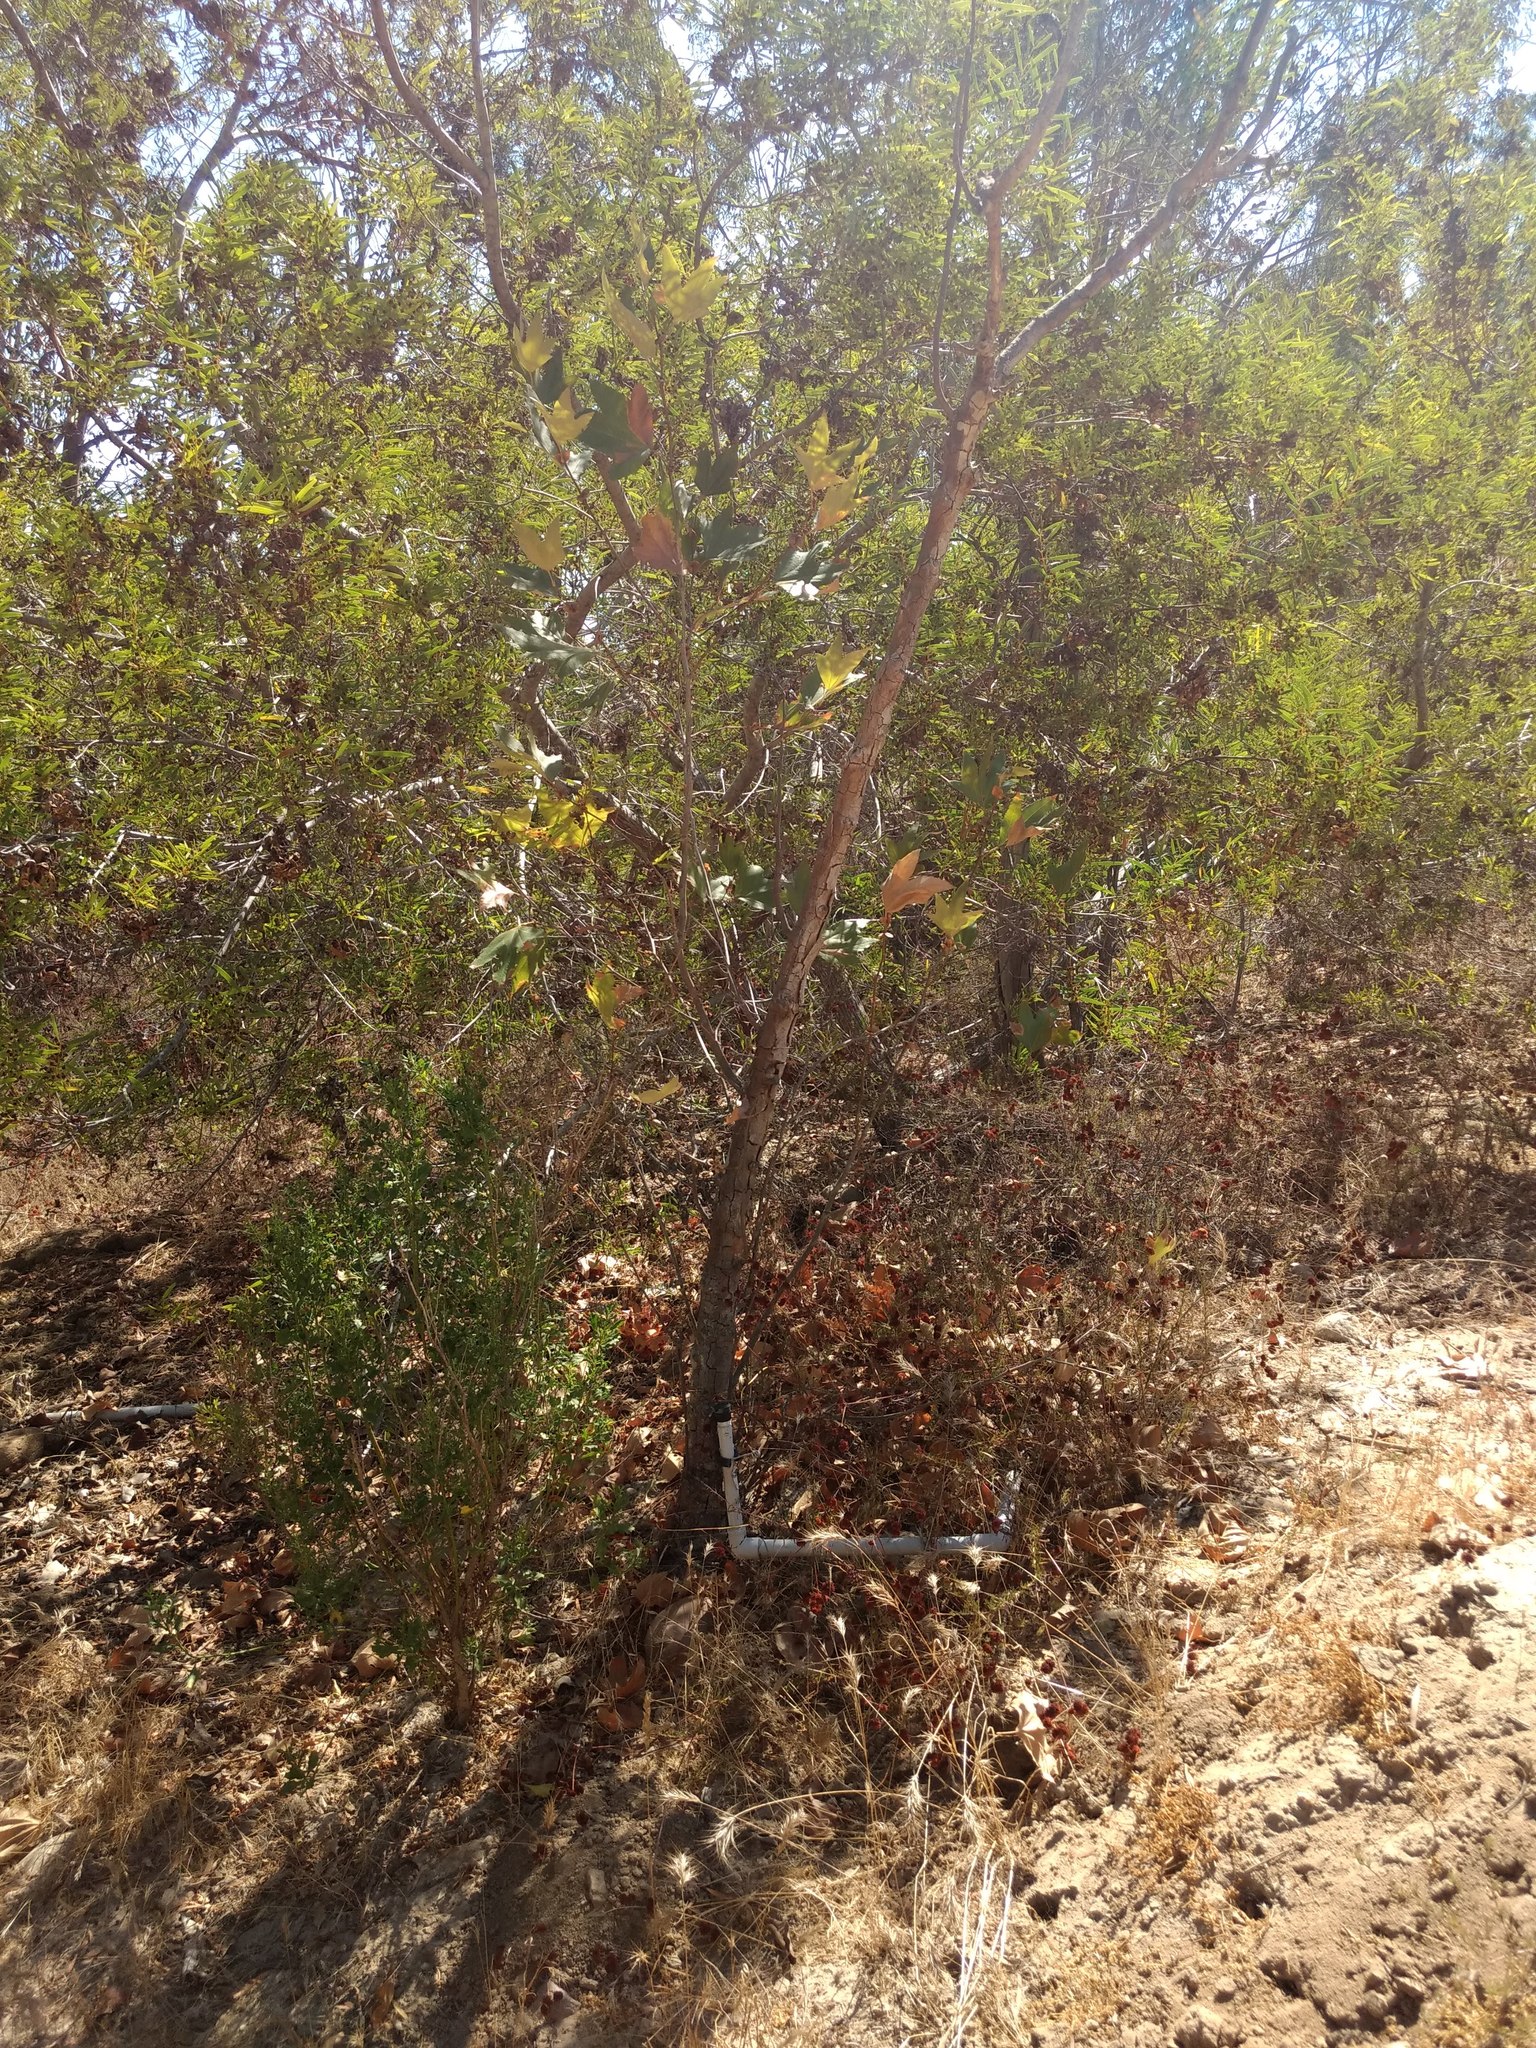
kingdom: Plantae
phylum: Tracheophyta
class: Magnoliopsida
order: Proteales
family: Platanaceae
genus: Platanus
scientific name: Platanus racemosa
